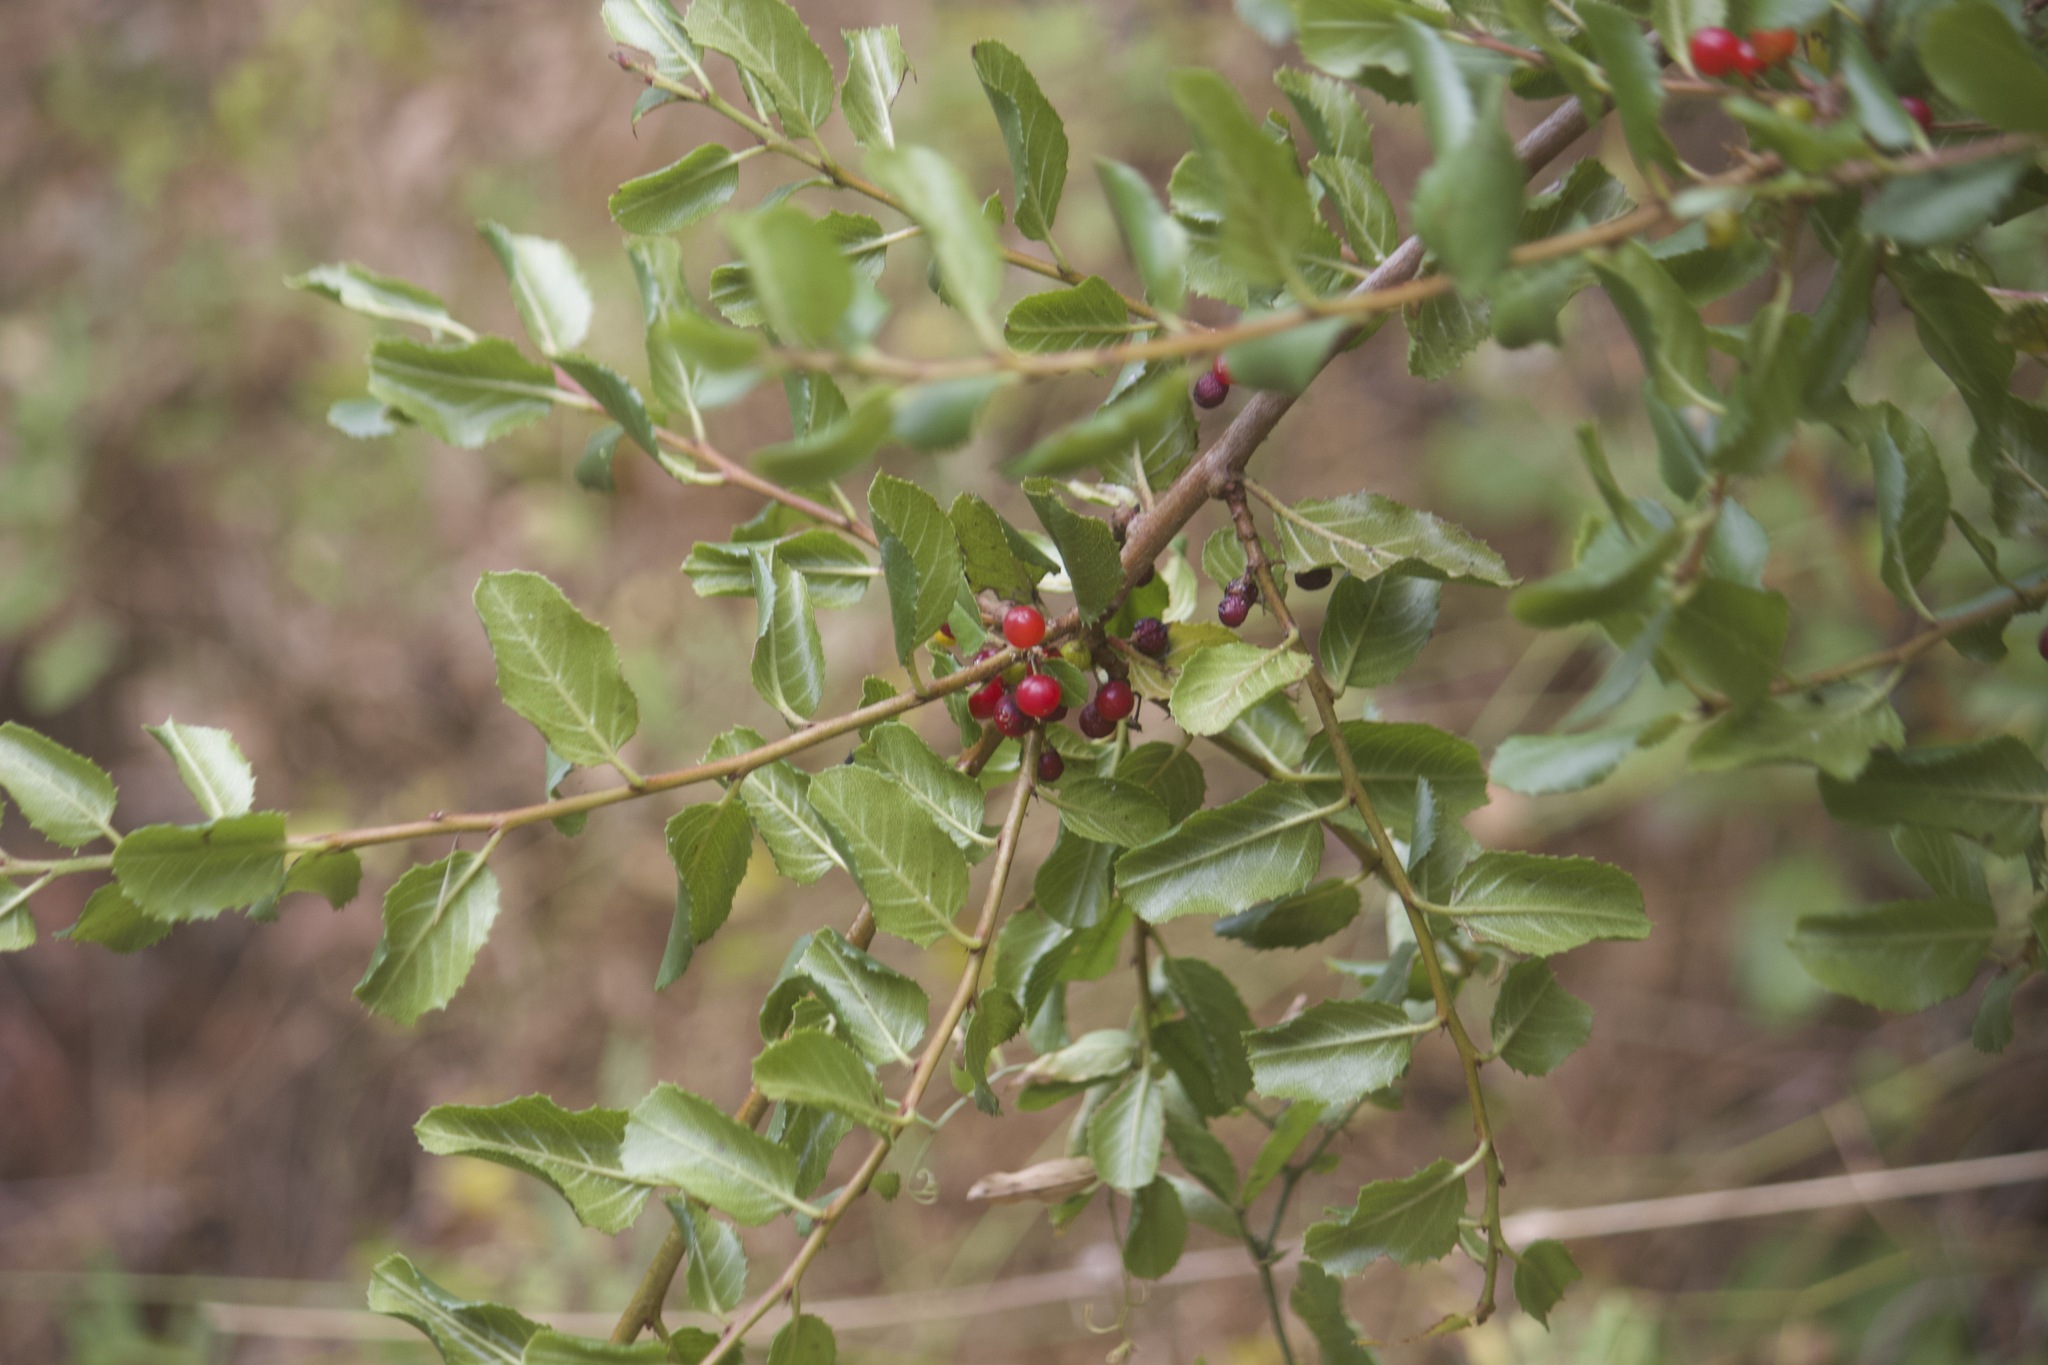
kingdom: Plantae
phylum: Tracheophyta
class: Magnoliopsida
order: Rosales
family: Rhamnaceae
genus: Endotropis
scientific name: Endotropis crocea
